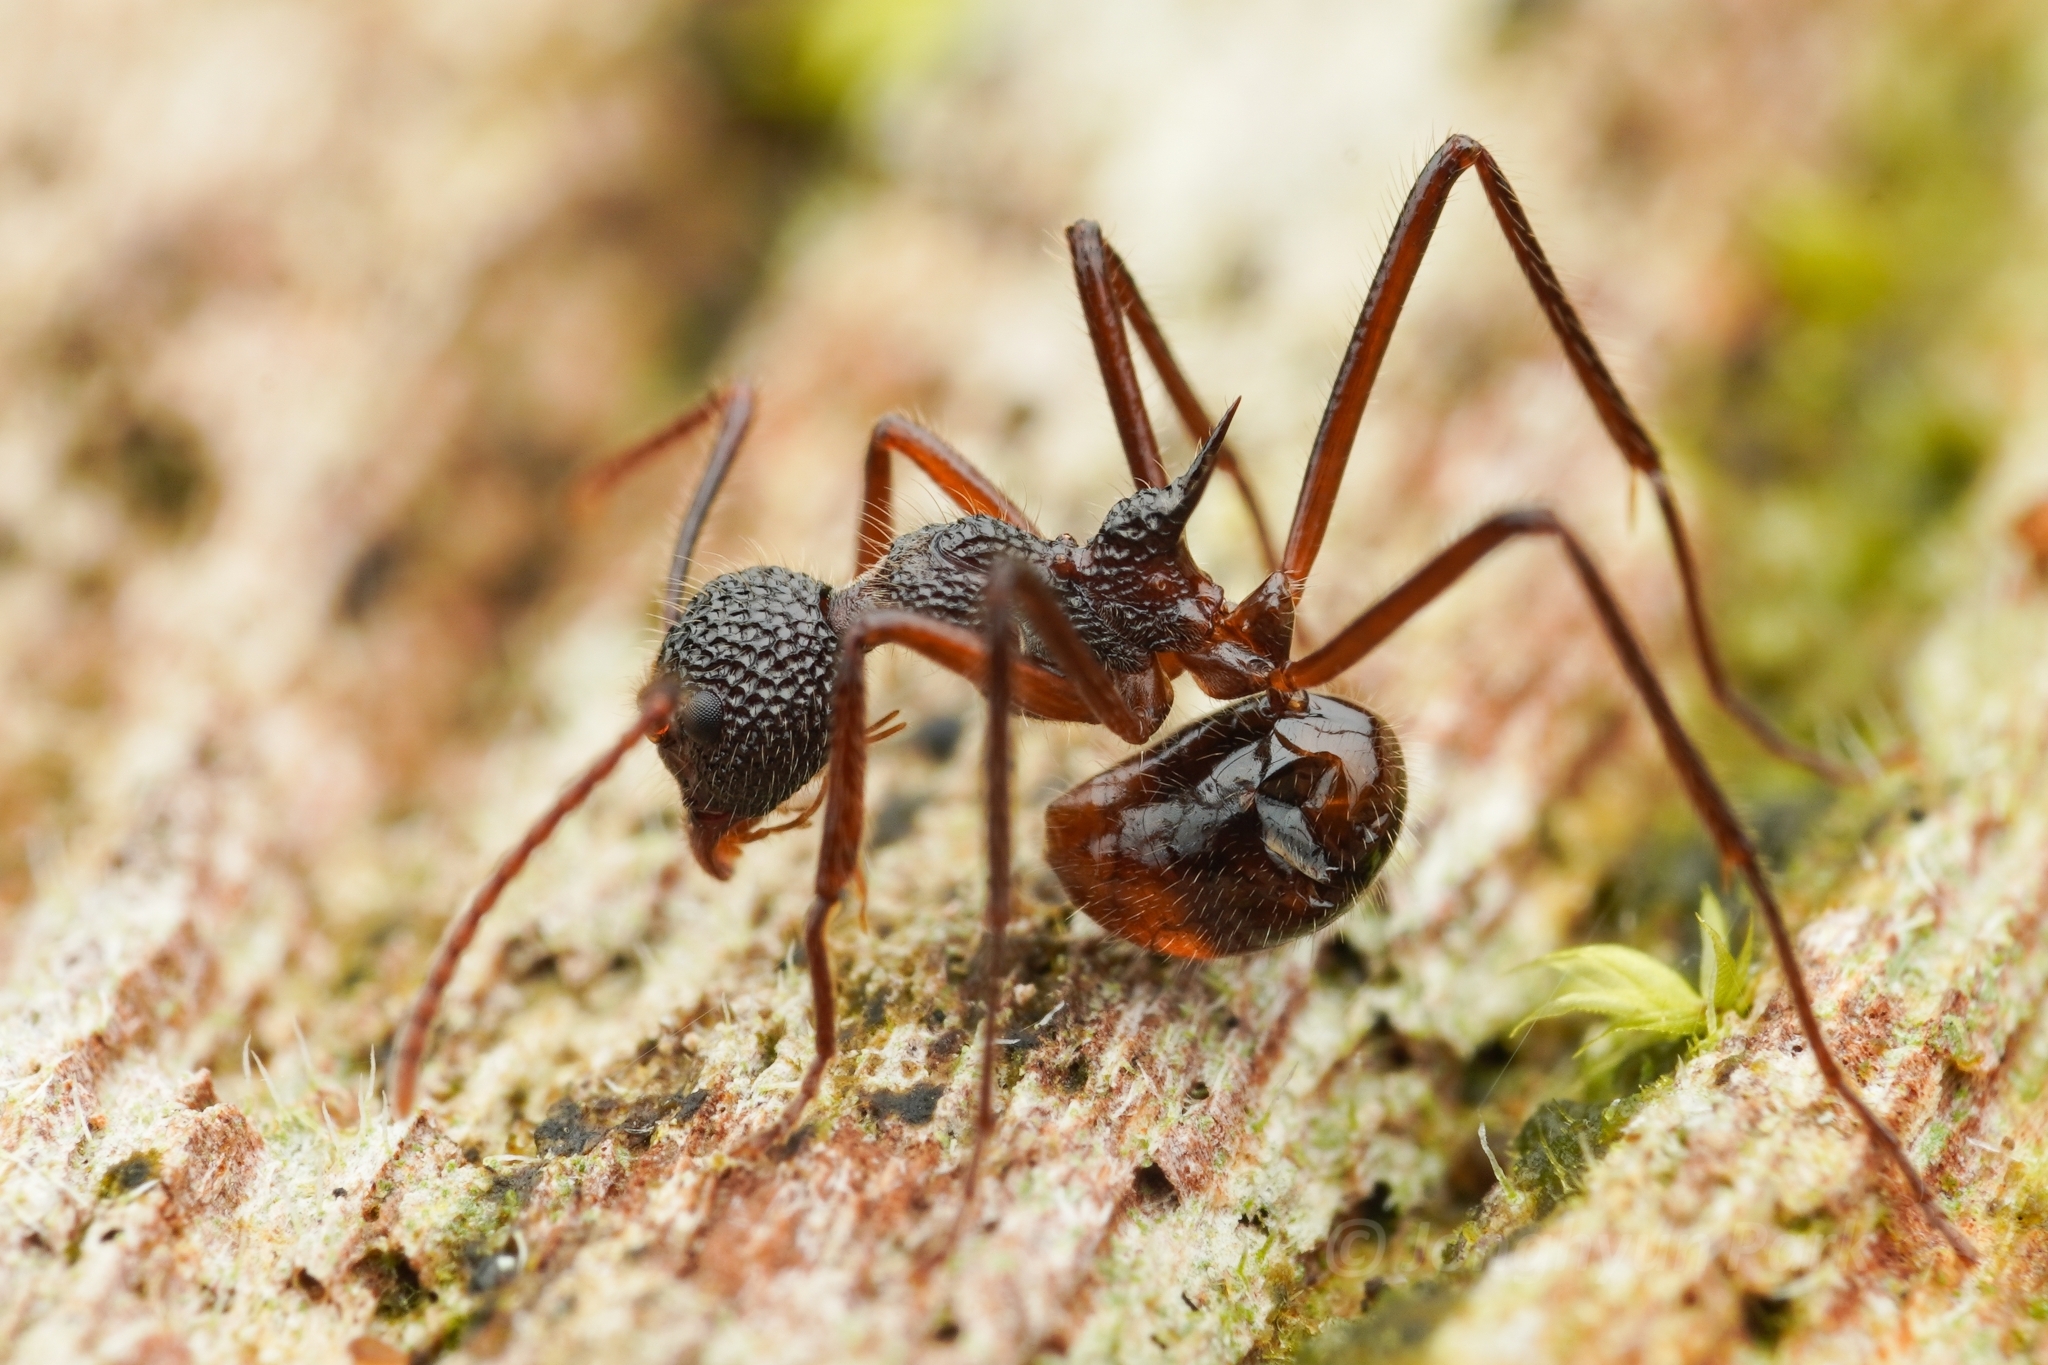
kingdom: Animalia
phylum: Arthropoda
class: Insecta
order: Hymenoptera
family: Formicidae
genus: Dolichoderus
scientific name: Dolichoderus indrapurensis
